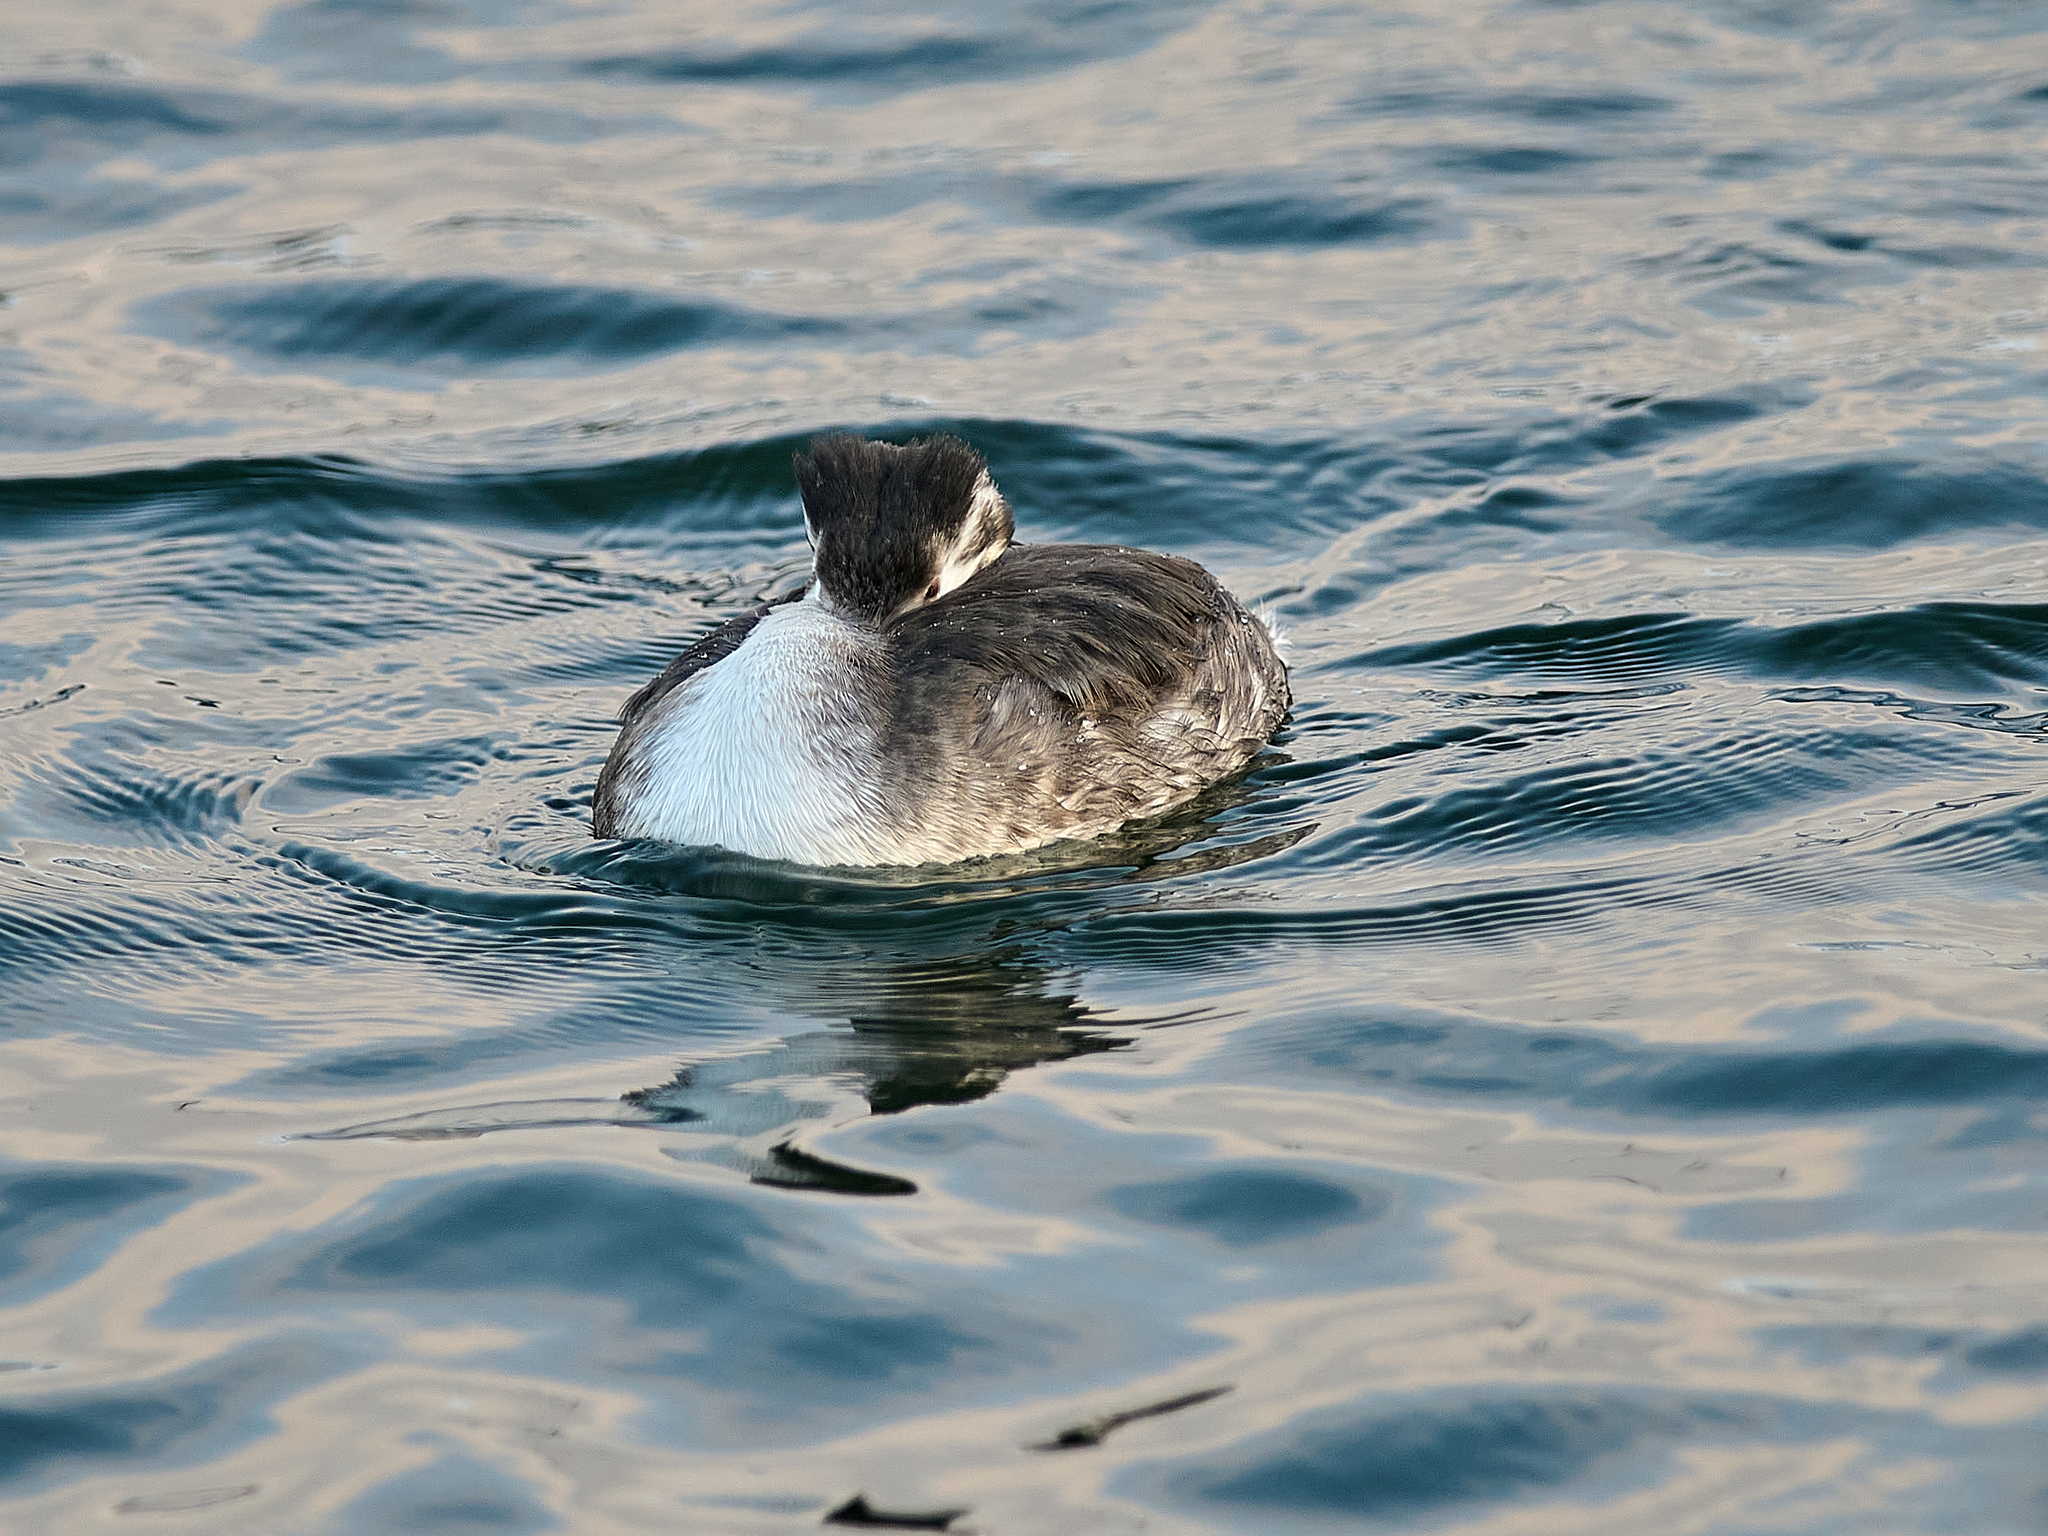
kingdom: Animalia
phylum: Chordata
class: Aves
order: Podicipediformes
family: Podicipedidae
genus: Podiceps
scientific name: Podiceps cristatus
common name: Great crested grebe
